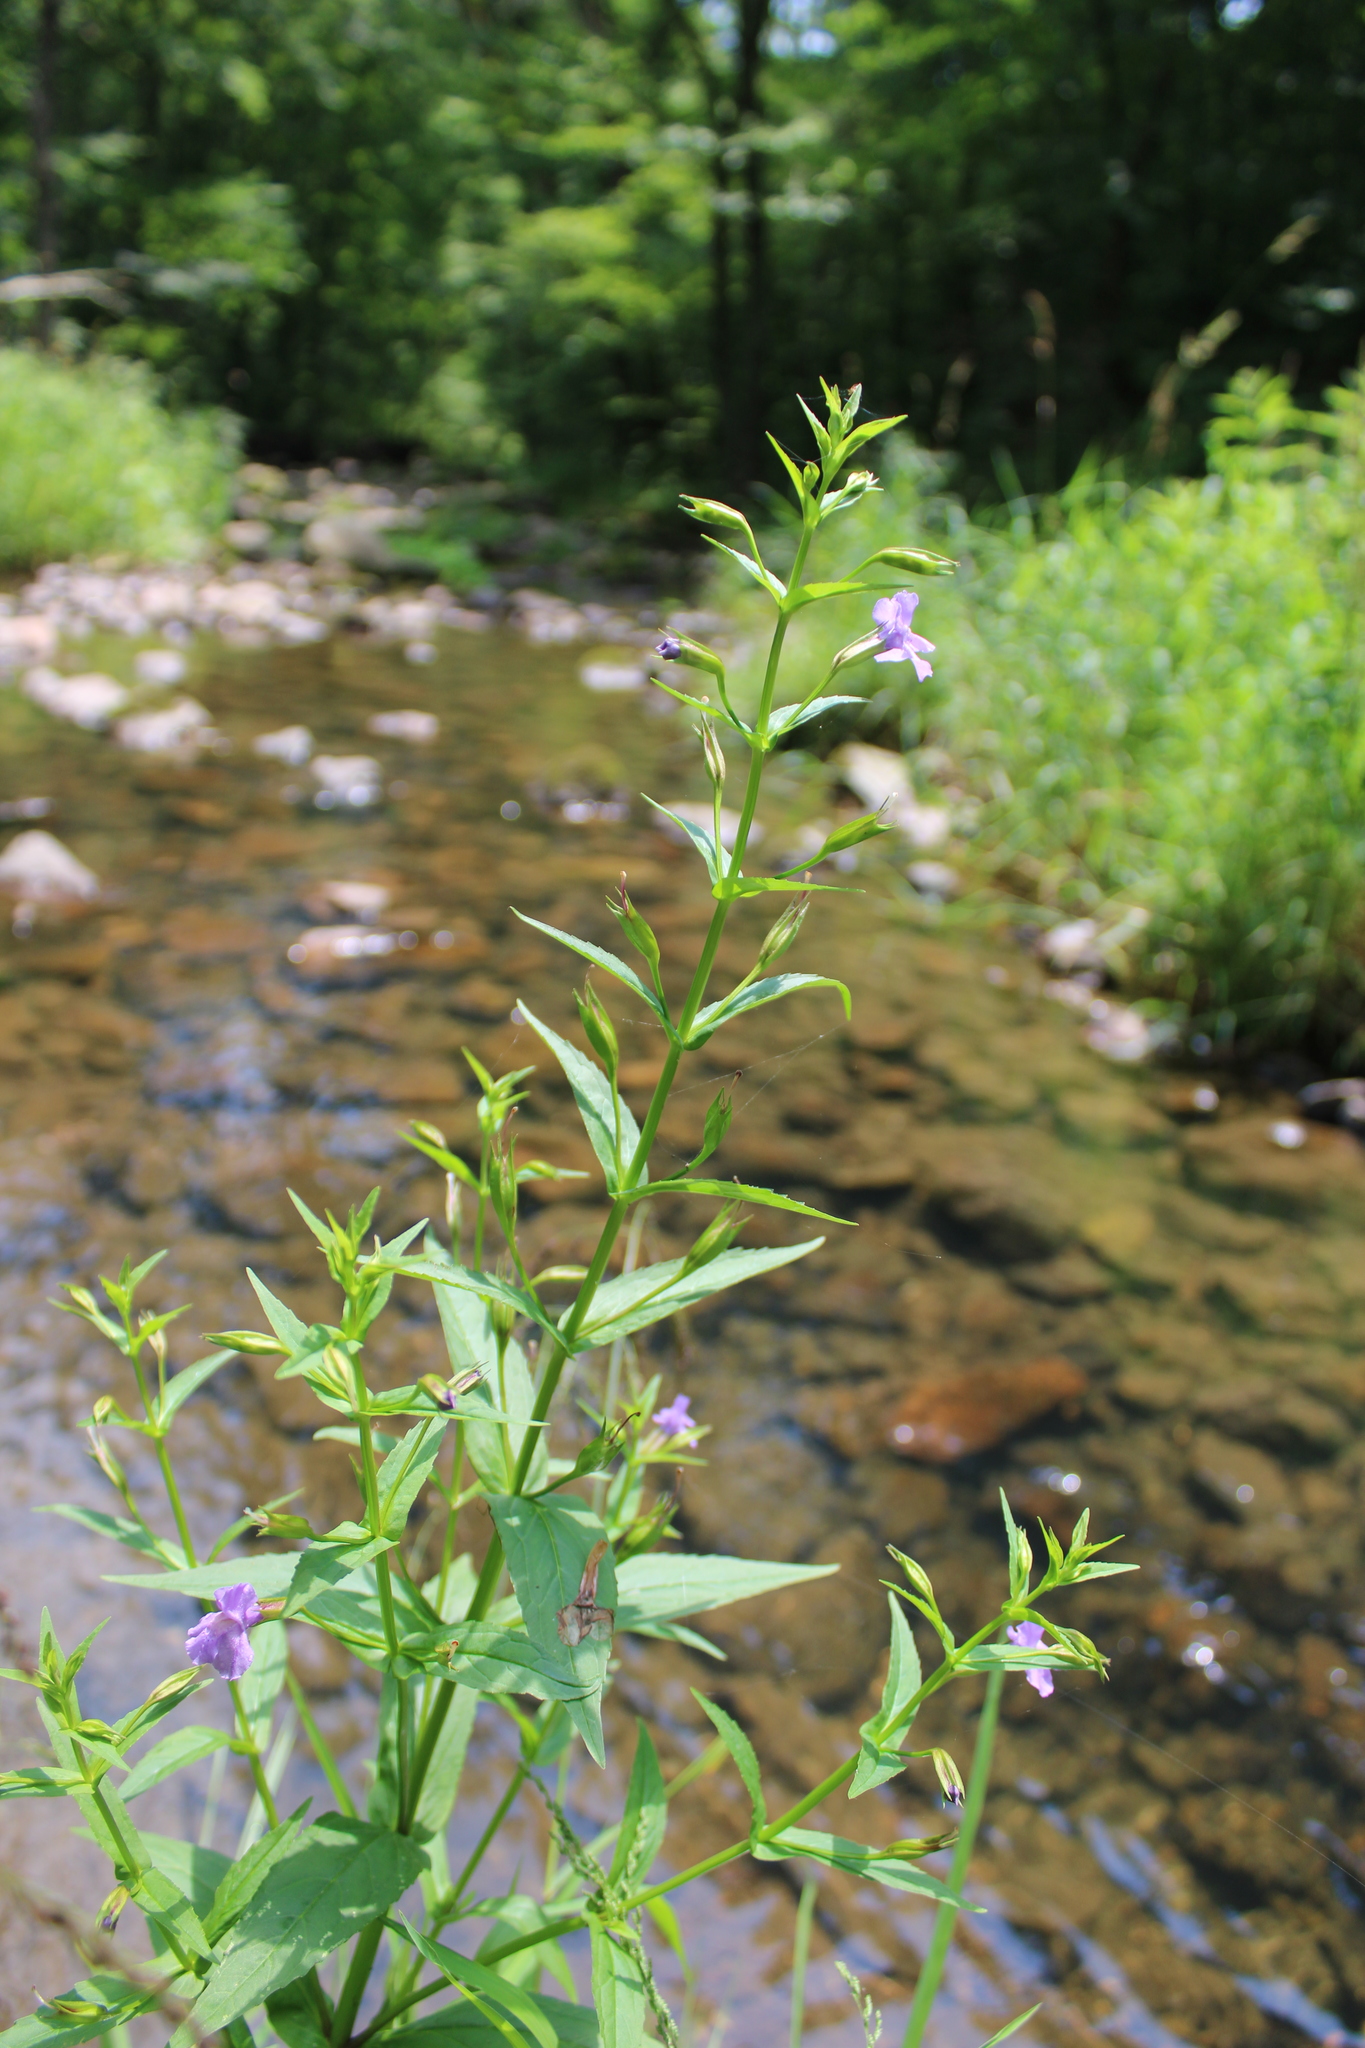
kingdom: Plantae
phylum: Tracheophyta
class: Magnoliopsida
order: Lamiales
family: Phrymaceae
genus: Mimulus
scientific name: Mimulus ringens
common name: Allegheny monkeyflower
